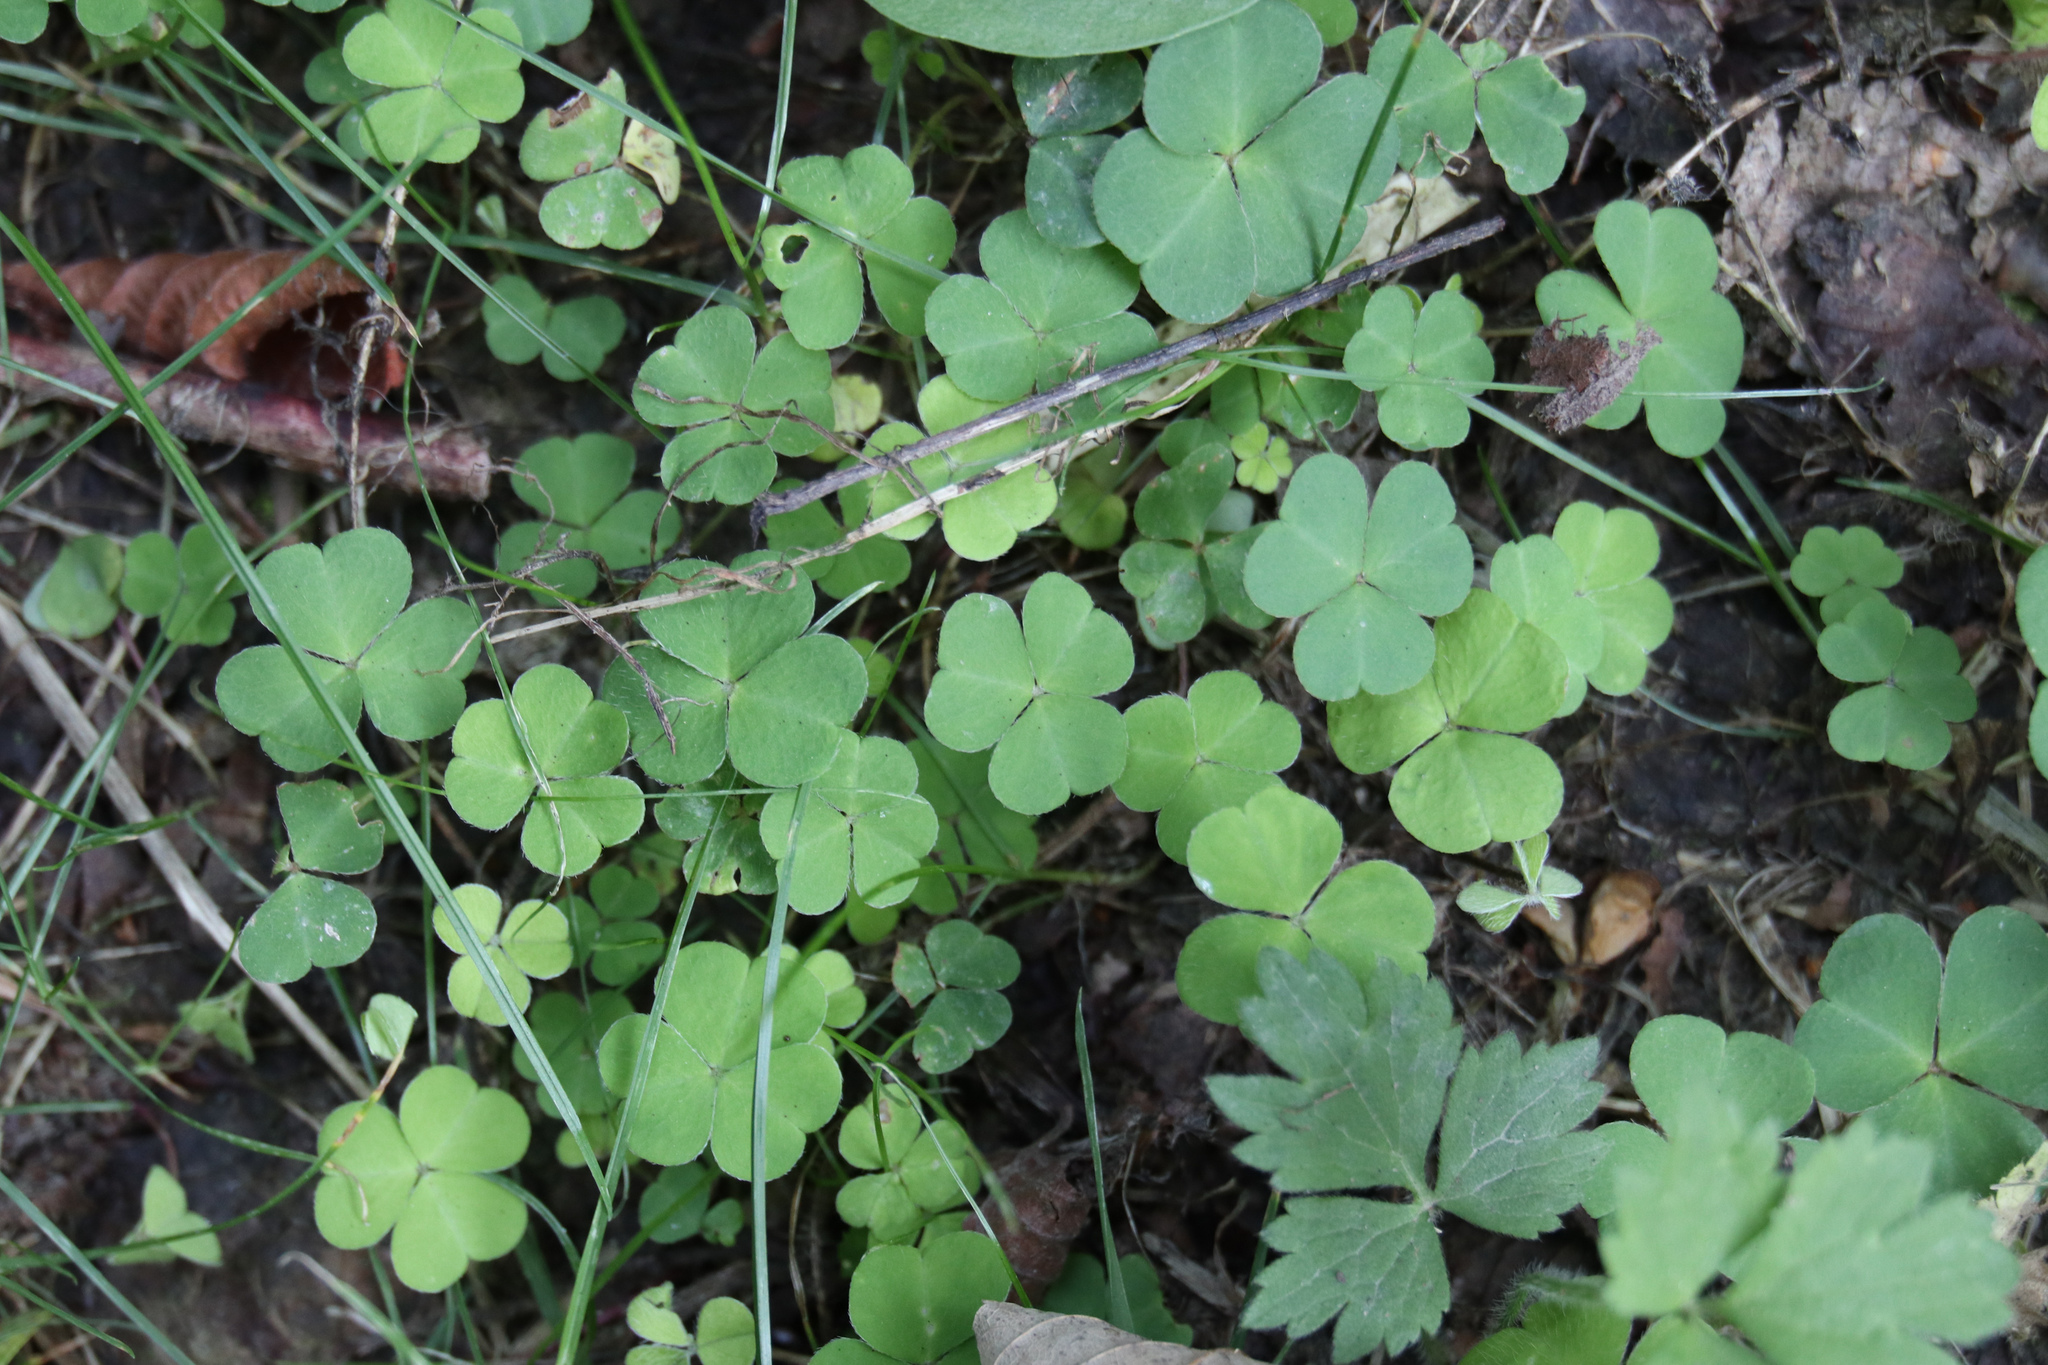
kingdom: Plantae
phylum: Tracheophyta
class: Magnoliopsida
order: Oxalidales
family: Oxalidaceae
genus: Oxalis
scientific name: Oxalis acetosella
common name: Wood-sorrel
